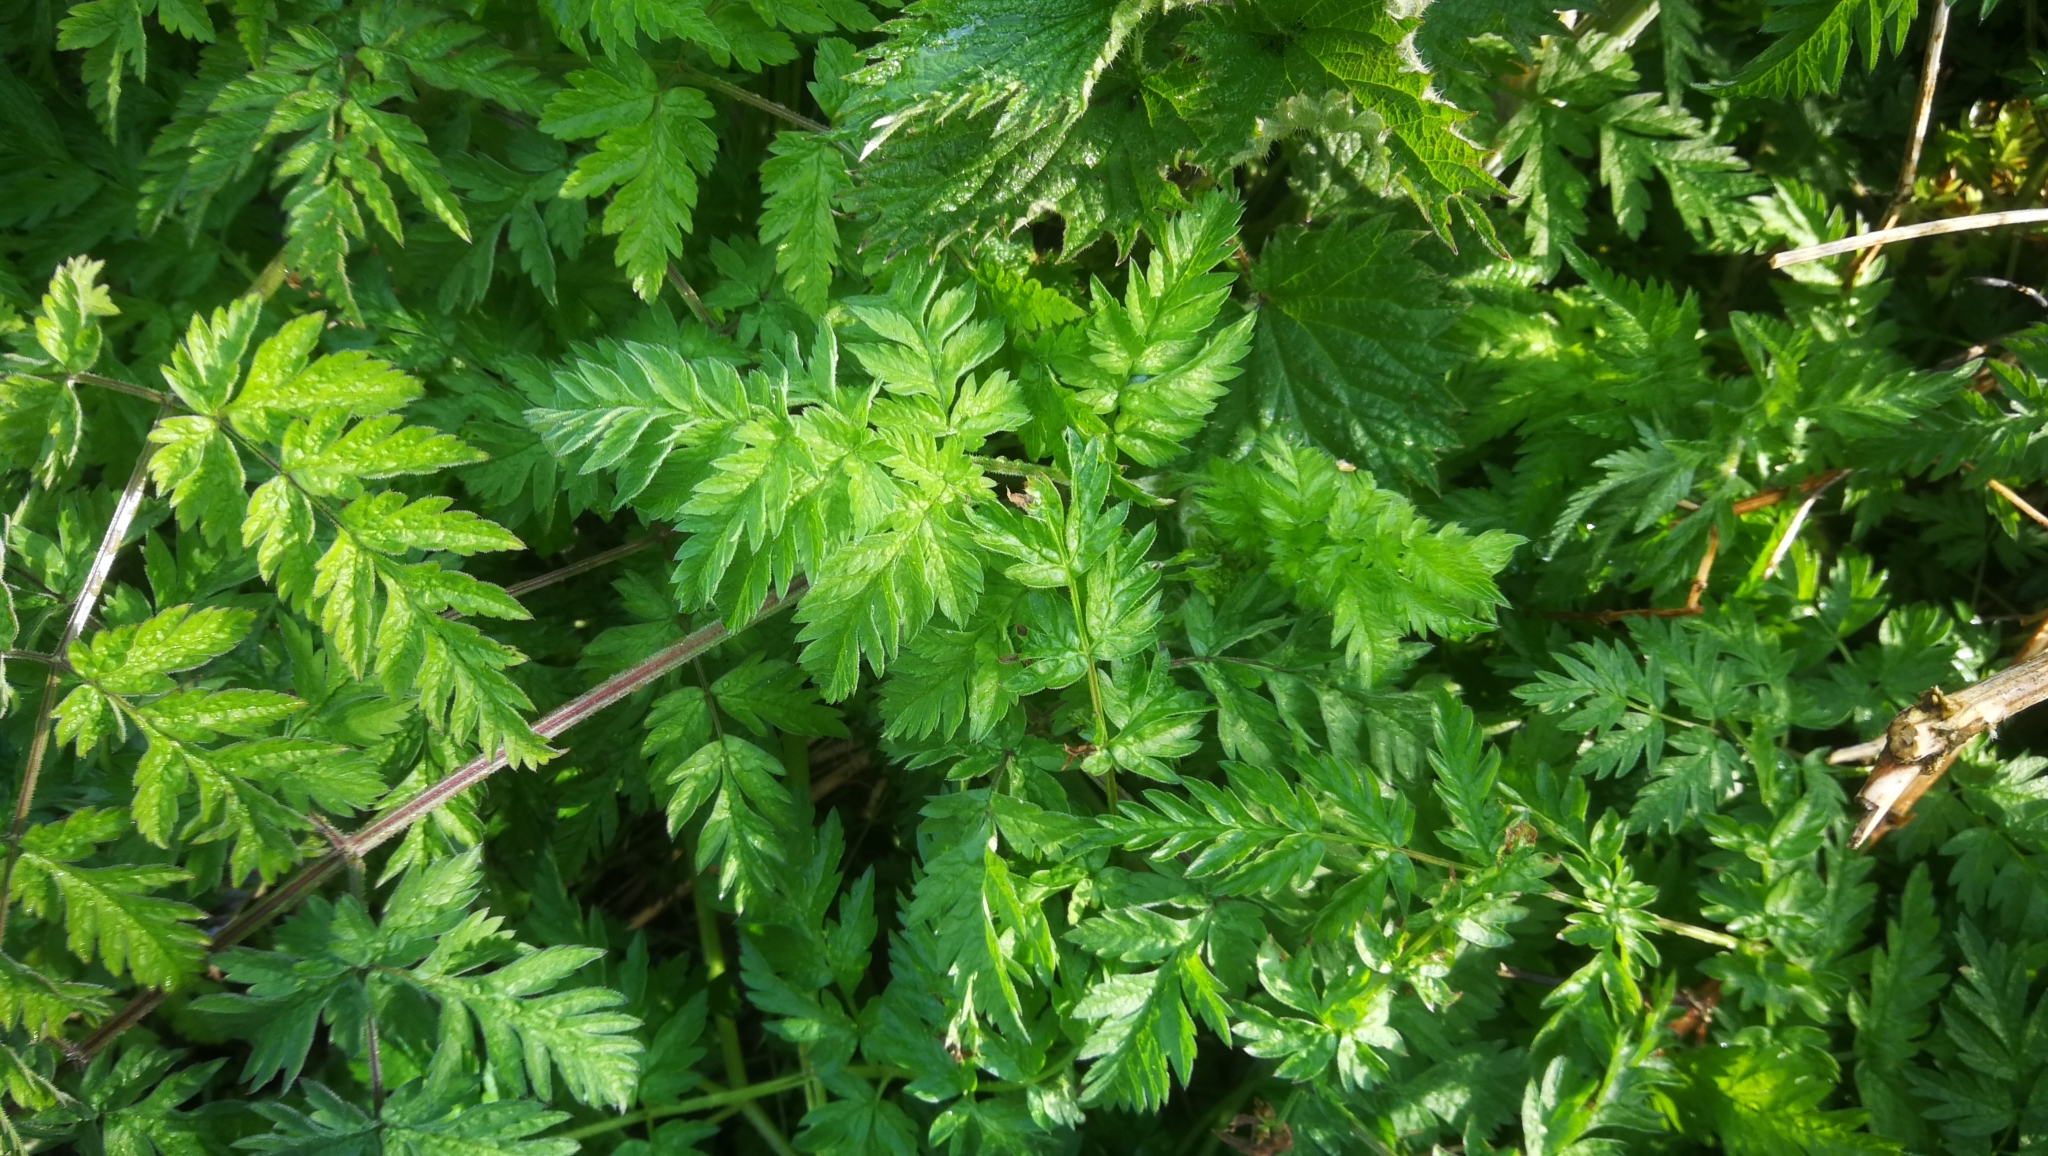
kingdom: Plantae
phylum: Tracheophyta
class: Magnoliopsida
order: Apiales
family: Apiaceae
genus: Anthriscus
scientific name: Anthriscus sylvestris
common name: Cow parsley
